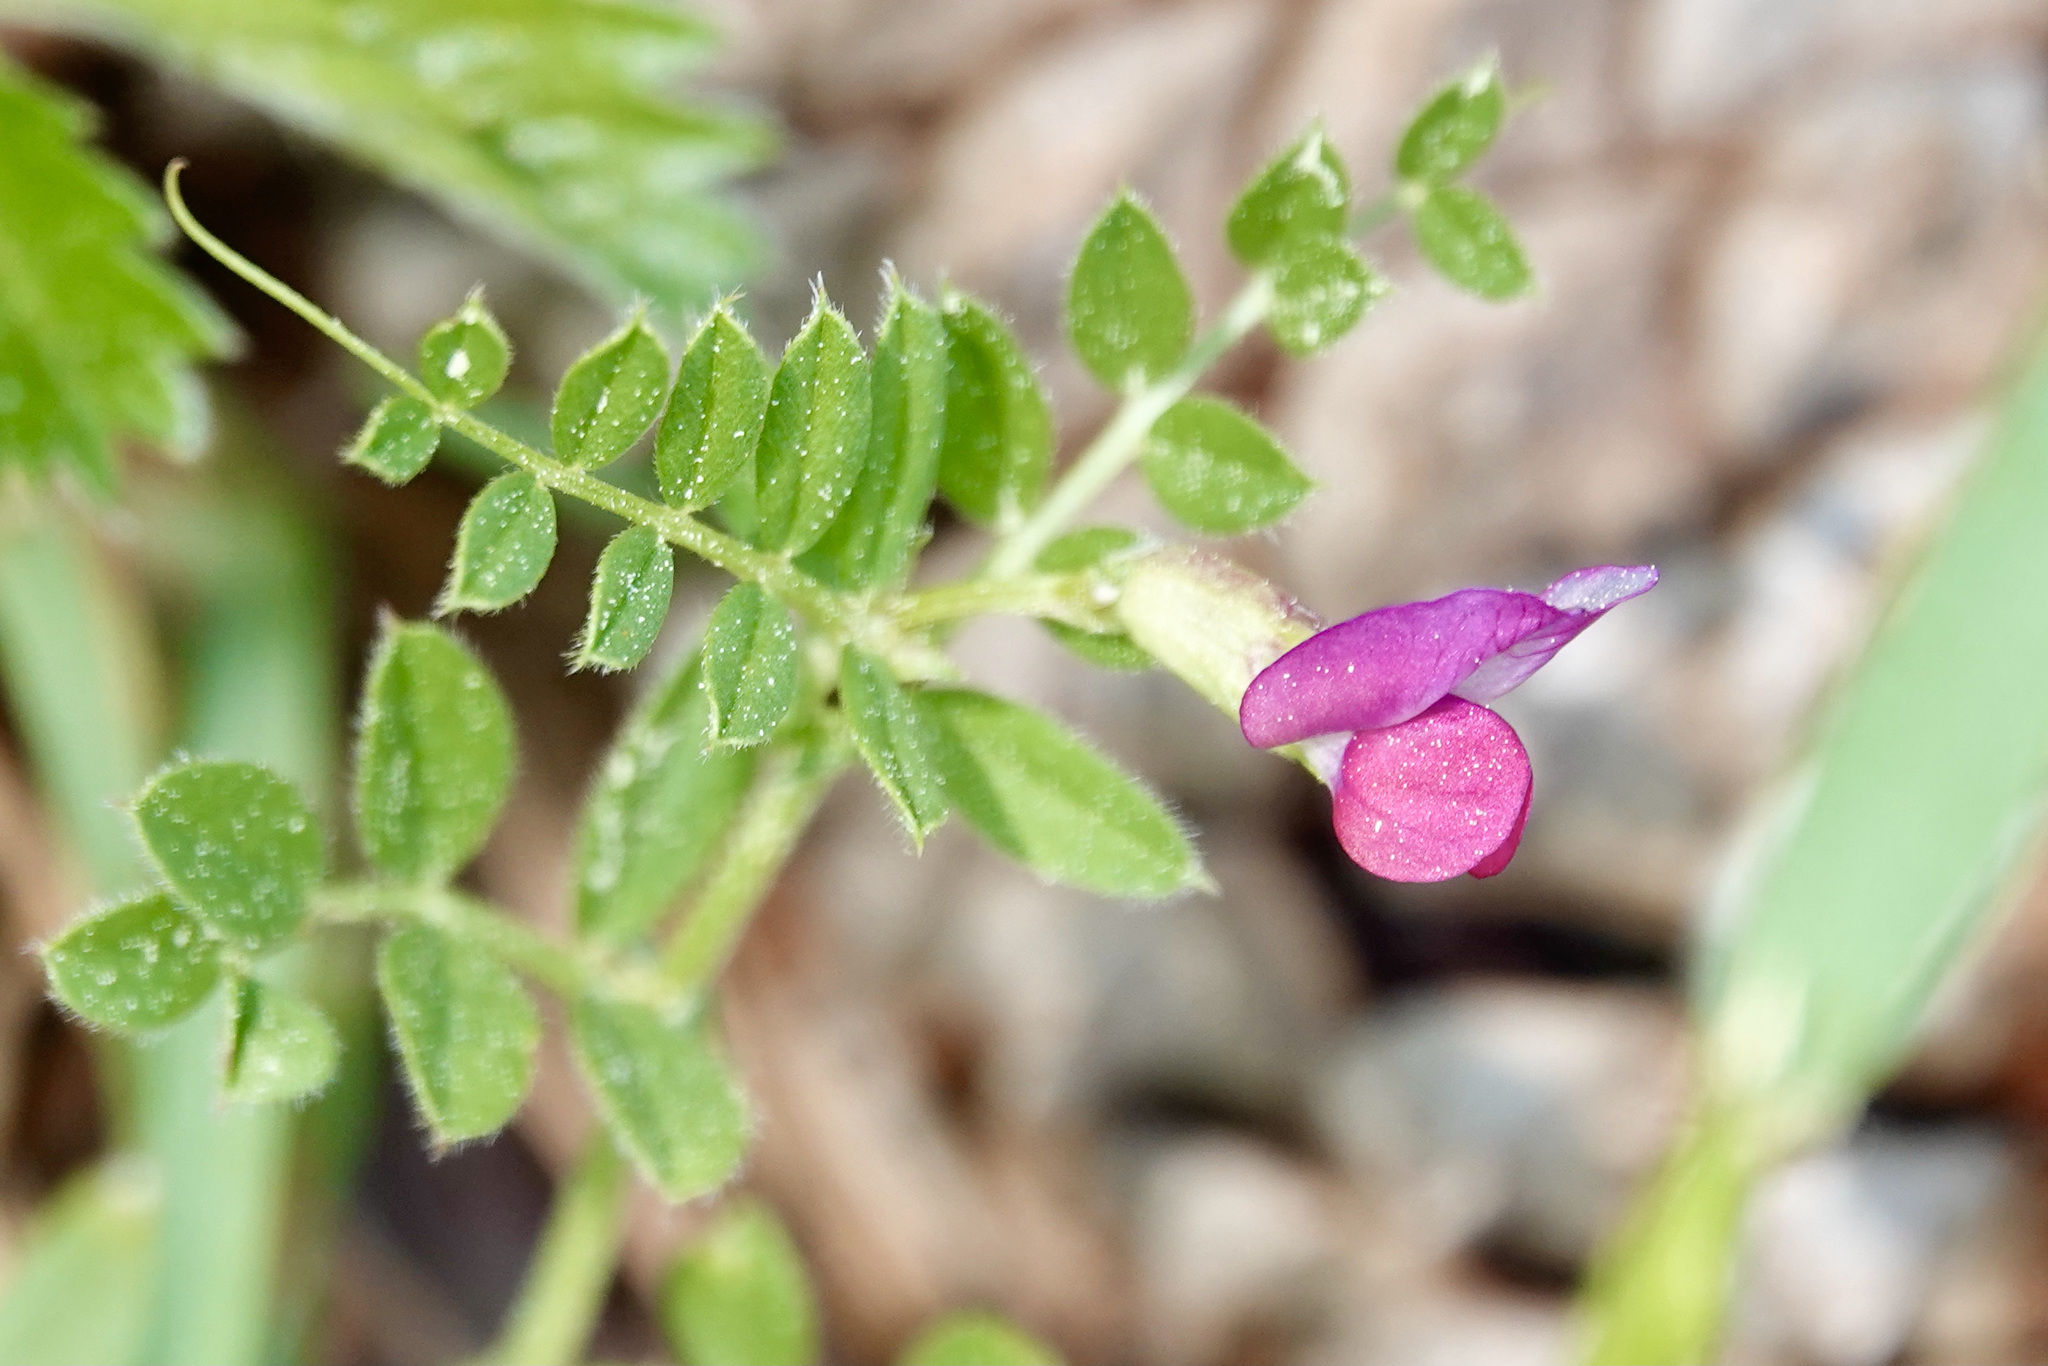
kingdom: Plantae
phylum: Tracheophyta
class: Magnoliopsida
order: Fabales
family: Fabaceae
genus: Vicia
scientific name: Vicia sativa
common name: Garden vetch
